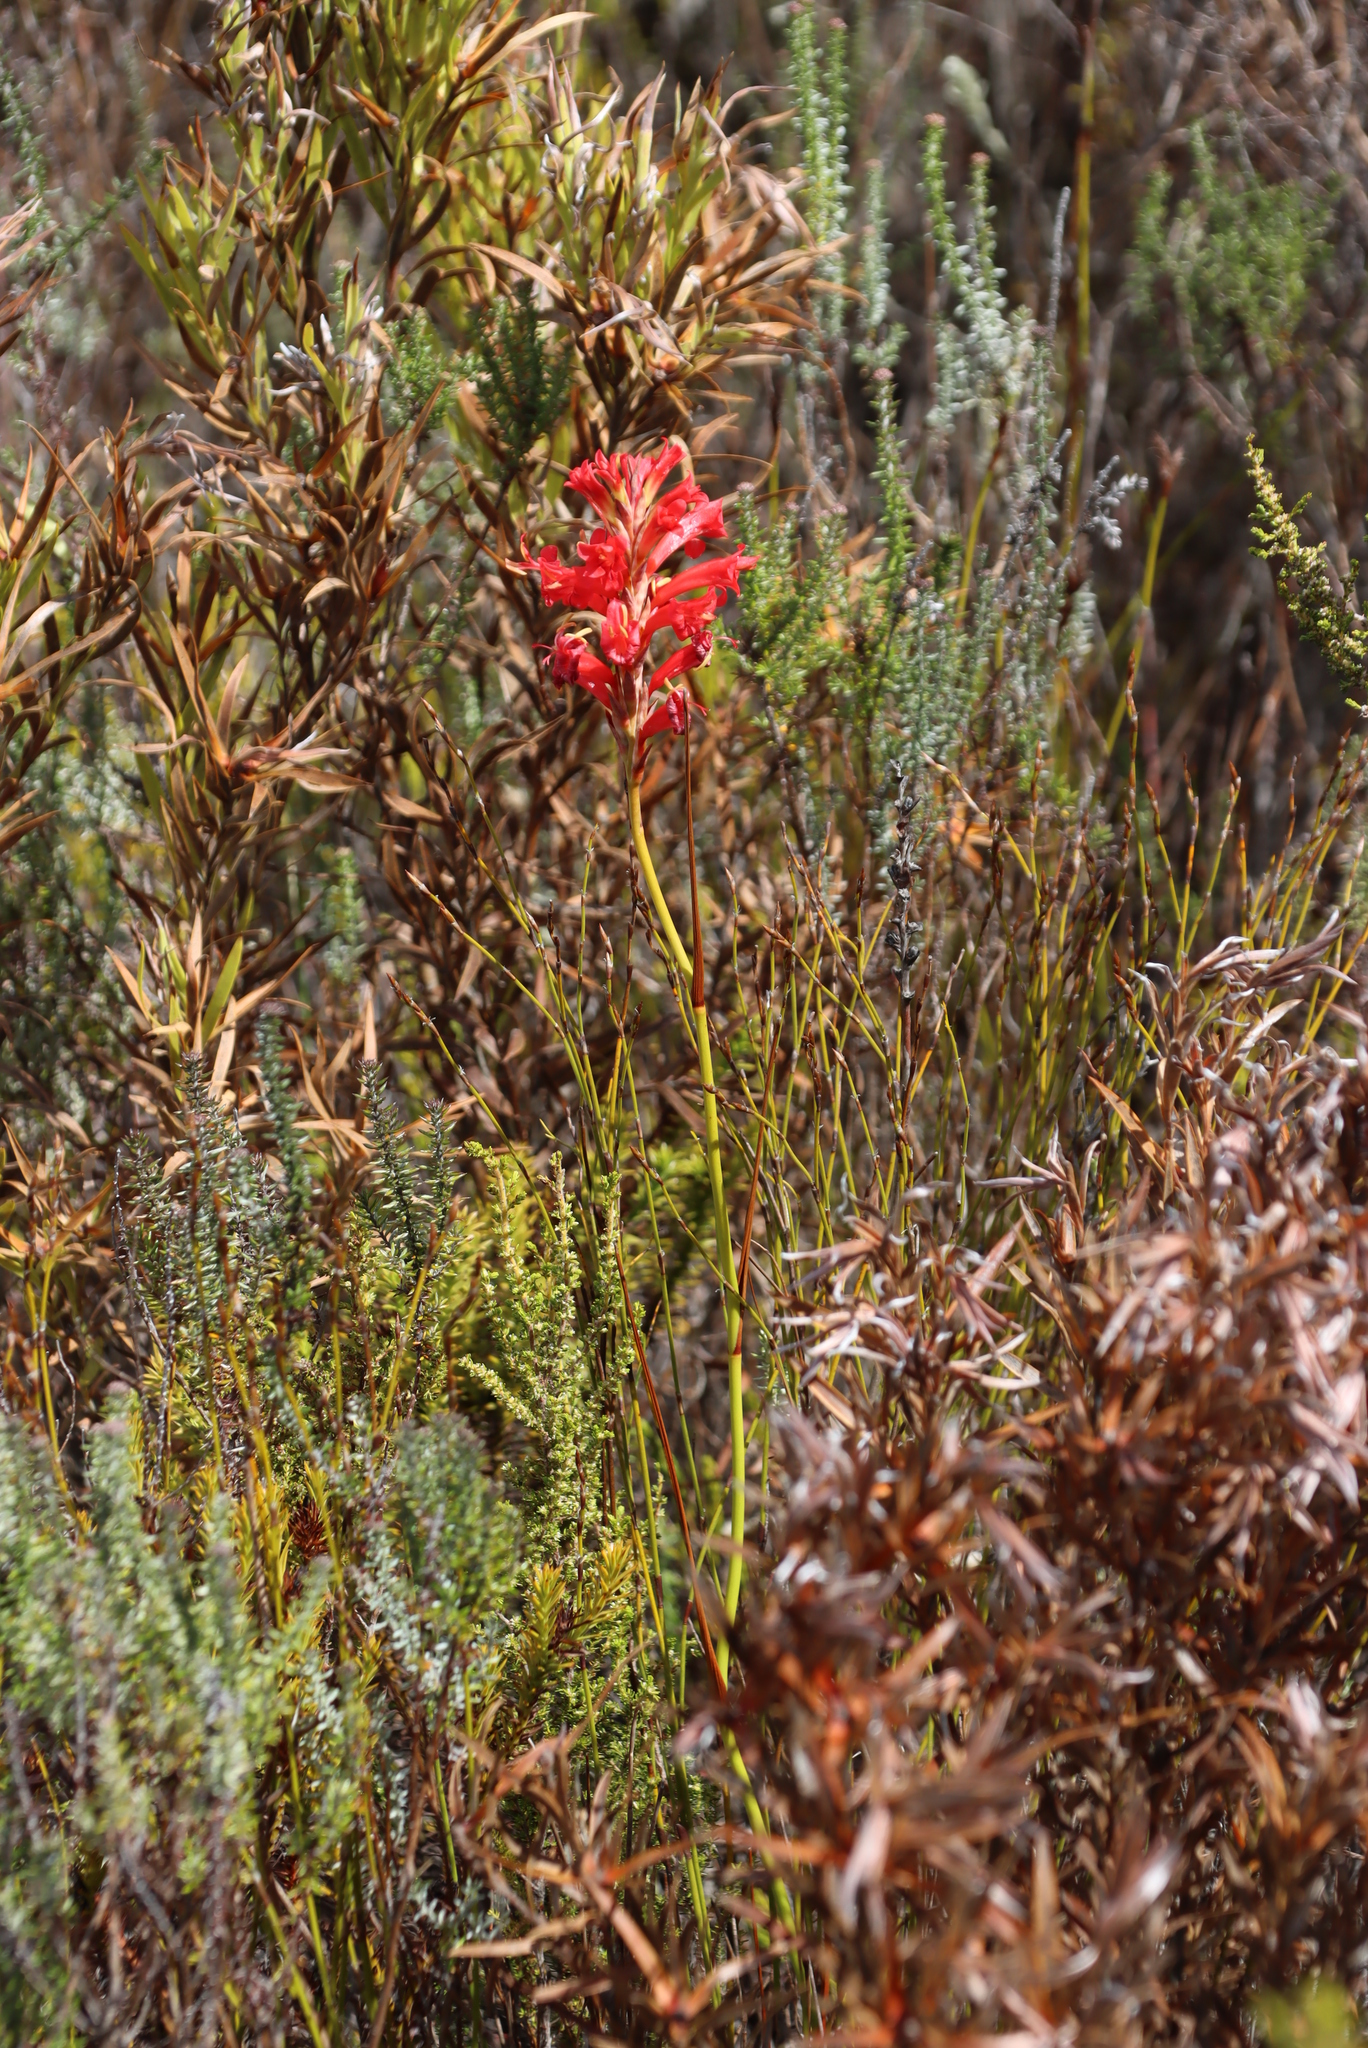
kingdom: Plantae
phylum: Tracheophyta
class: Liliopsida
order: Asparagales
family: Iridaceae
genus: Tritoniopsis
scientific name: Tritoniopsis triticea
